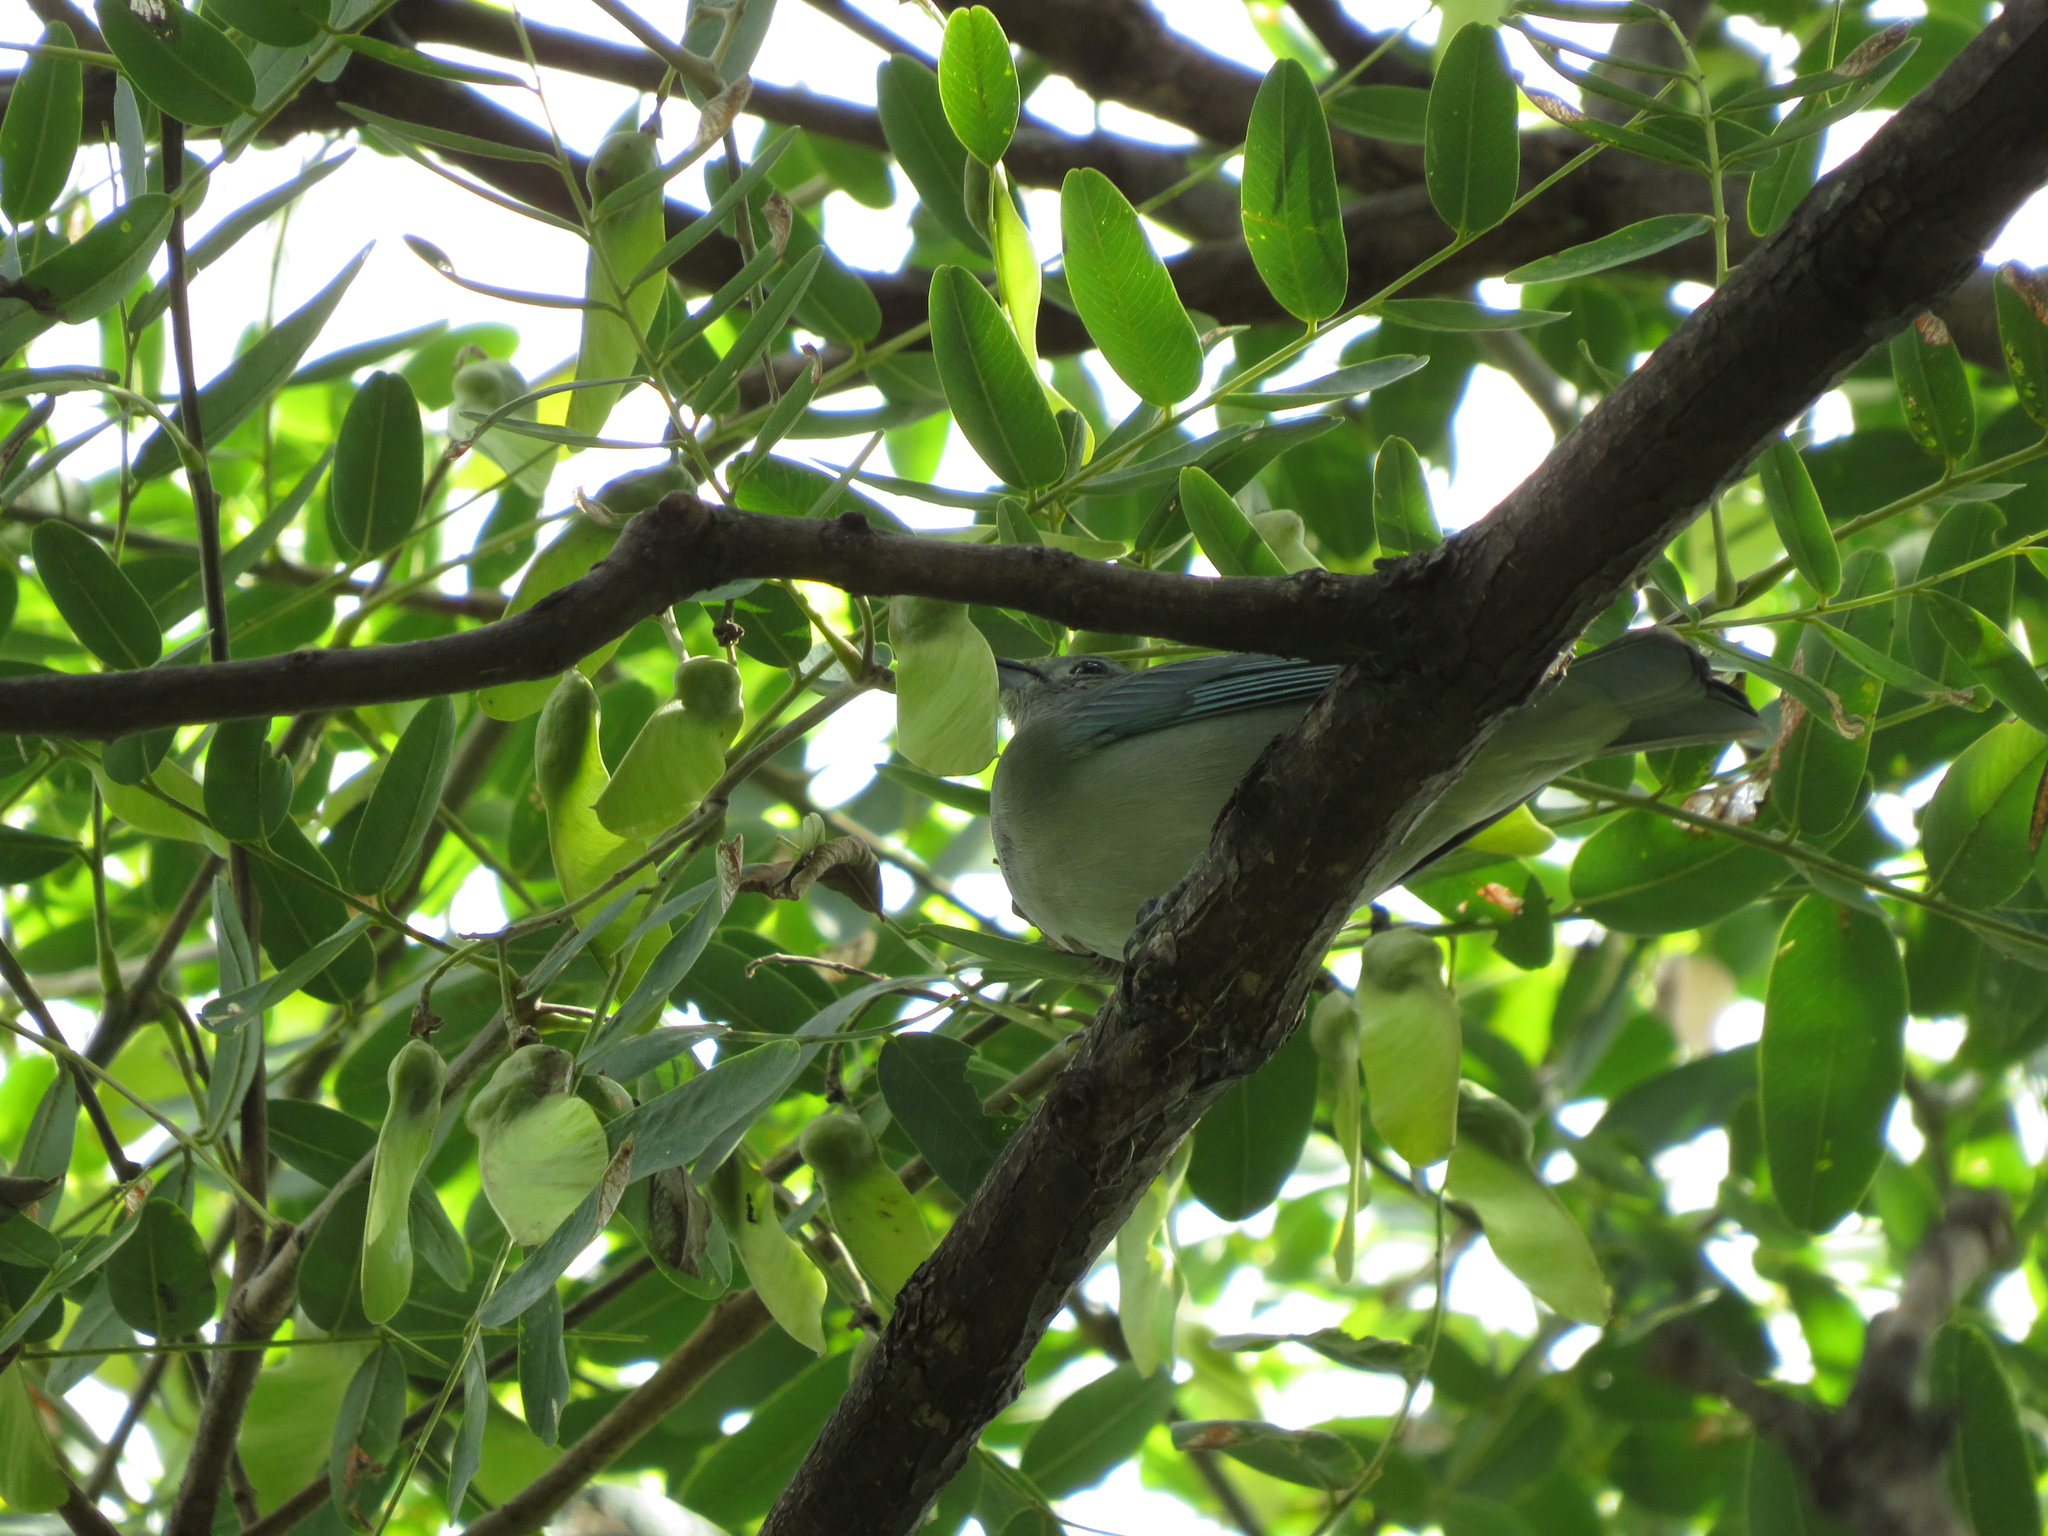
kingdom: Animalia
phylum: Chordata
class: Aves
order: Passeriformes
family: Thraupidae
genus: Thraupis
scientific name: Thraupis sayaca
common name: Sayaca tanager
